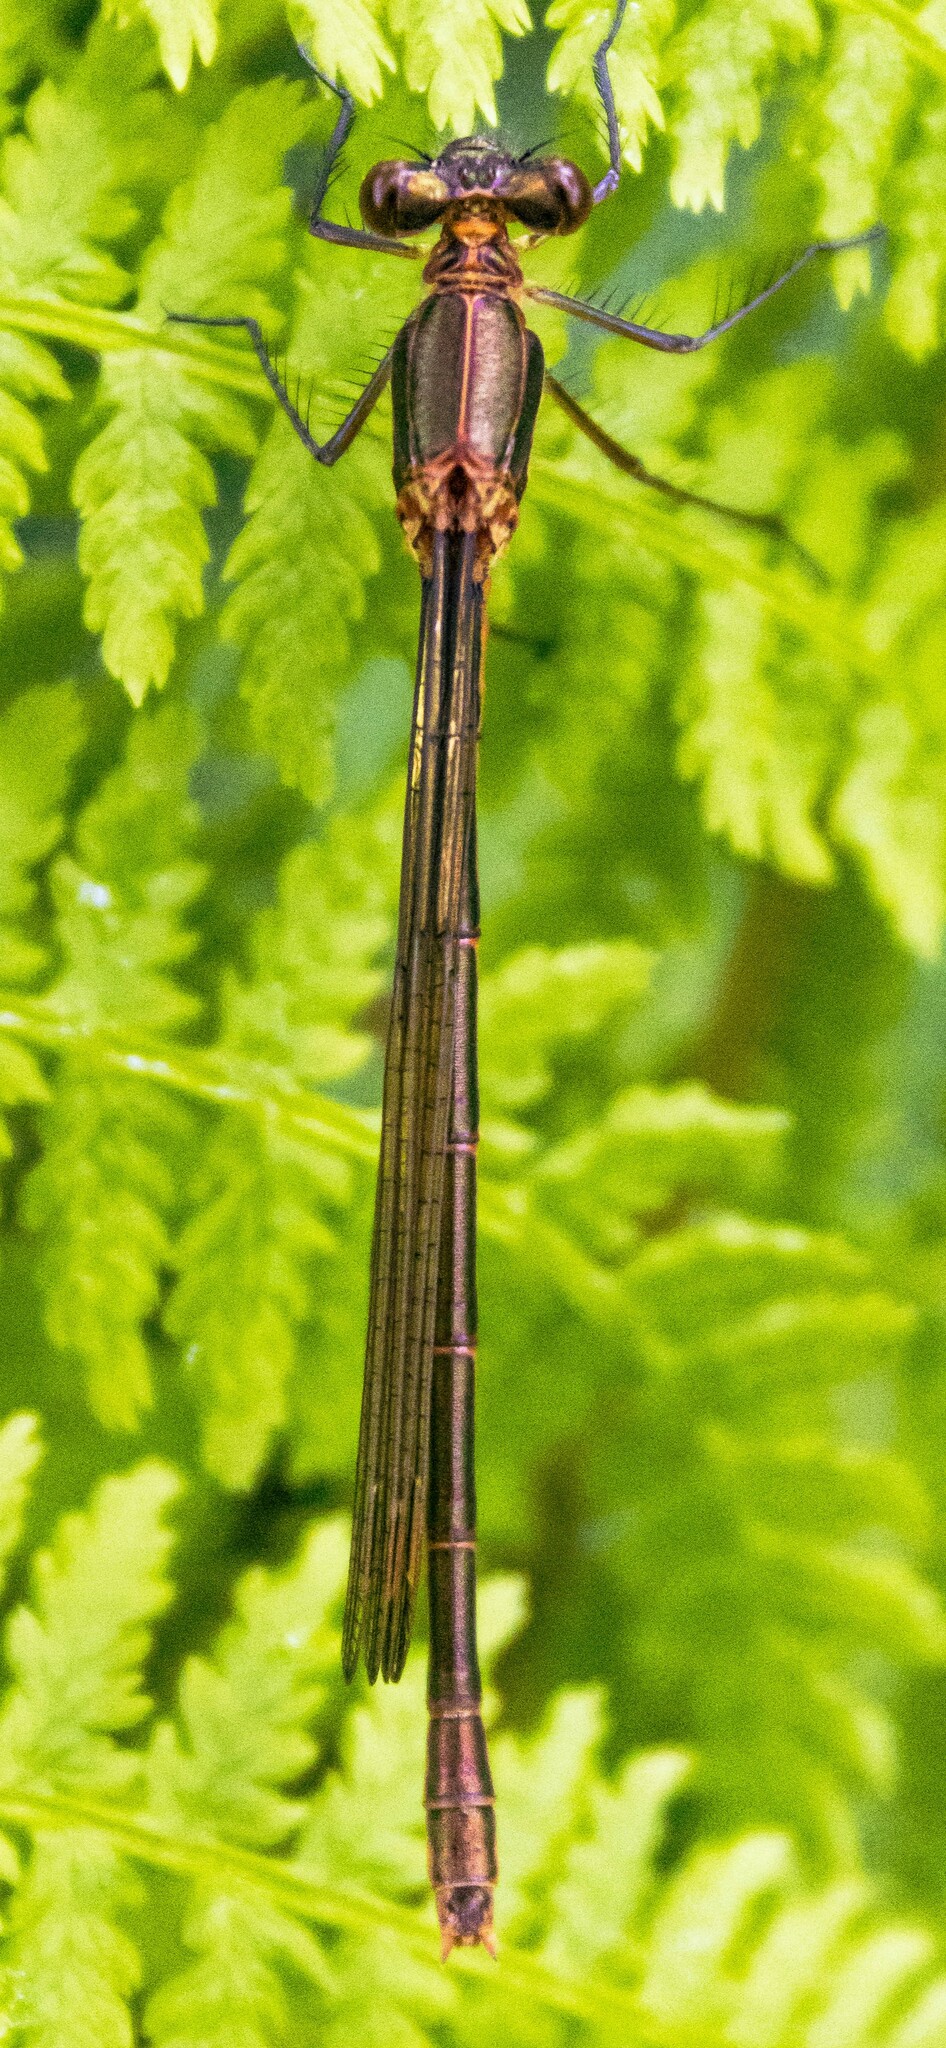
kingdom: Animalia
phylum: Arthropoda
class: Insecta
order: Odonata
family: Lestidae
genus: Lestes
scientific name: Lestes sponsa
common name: Common spreadwing
